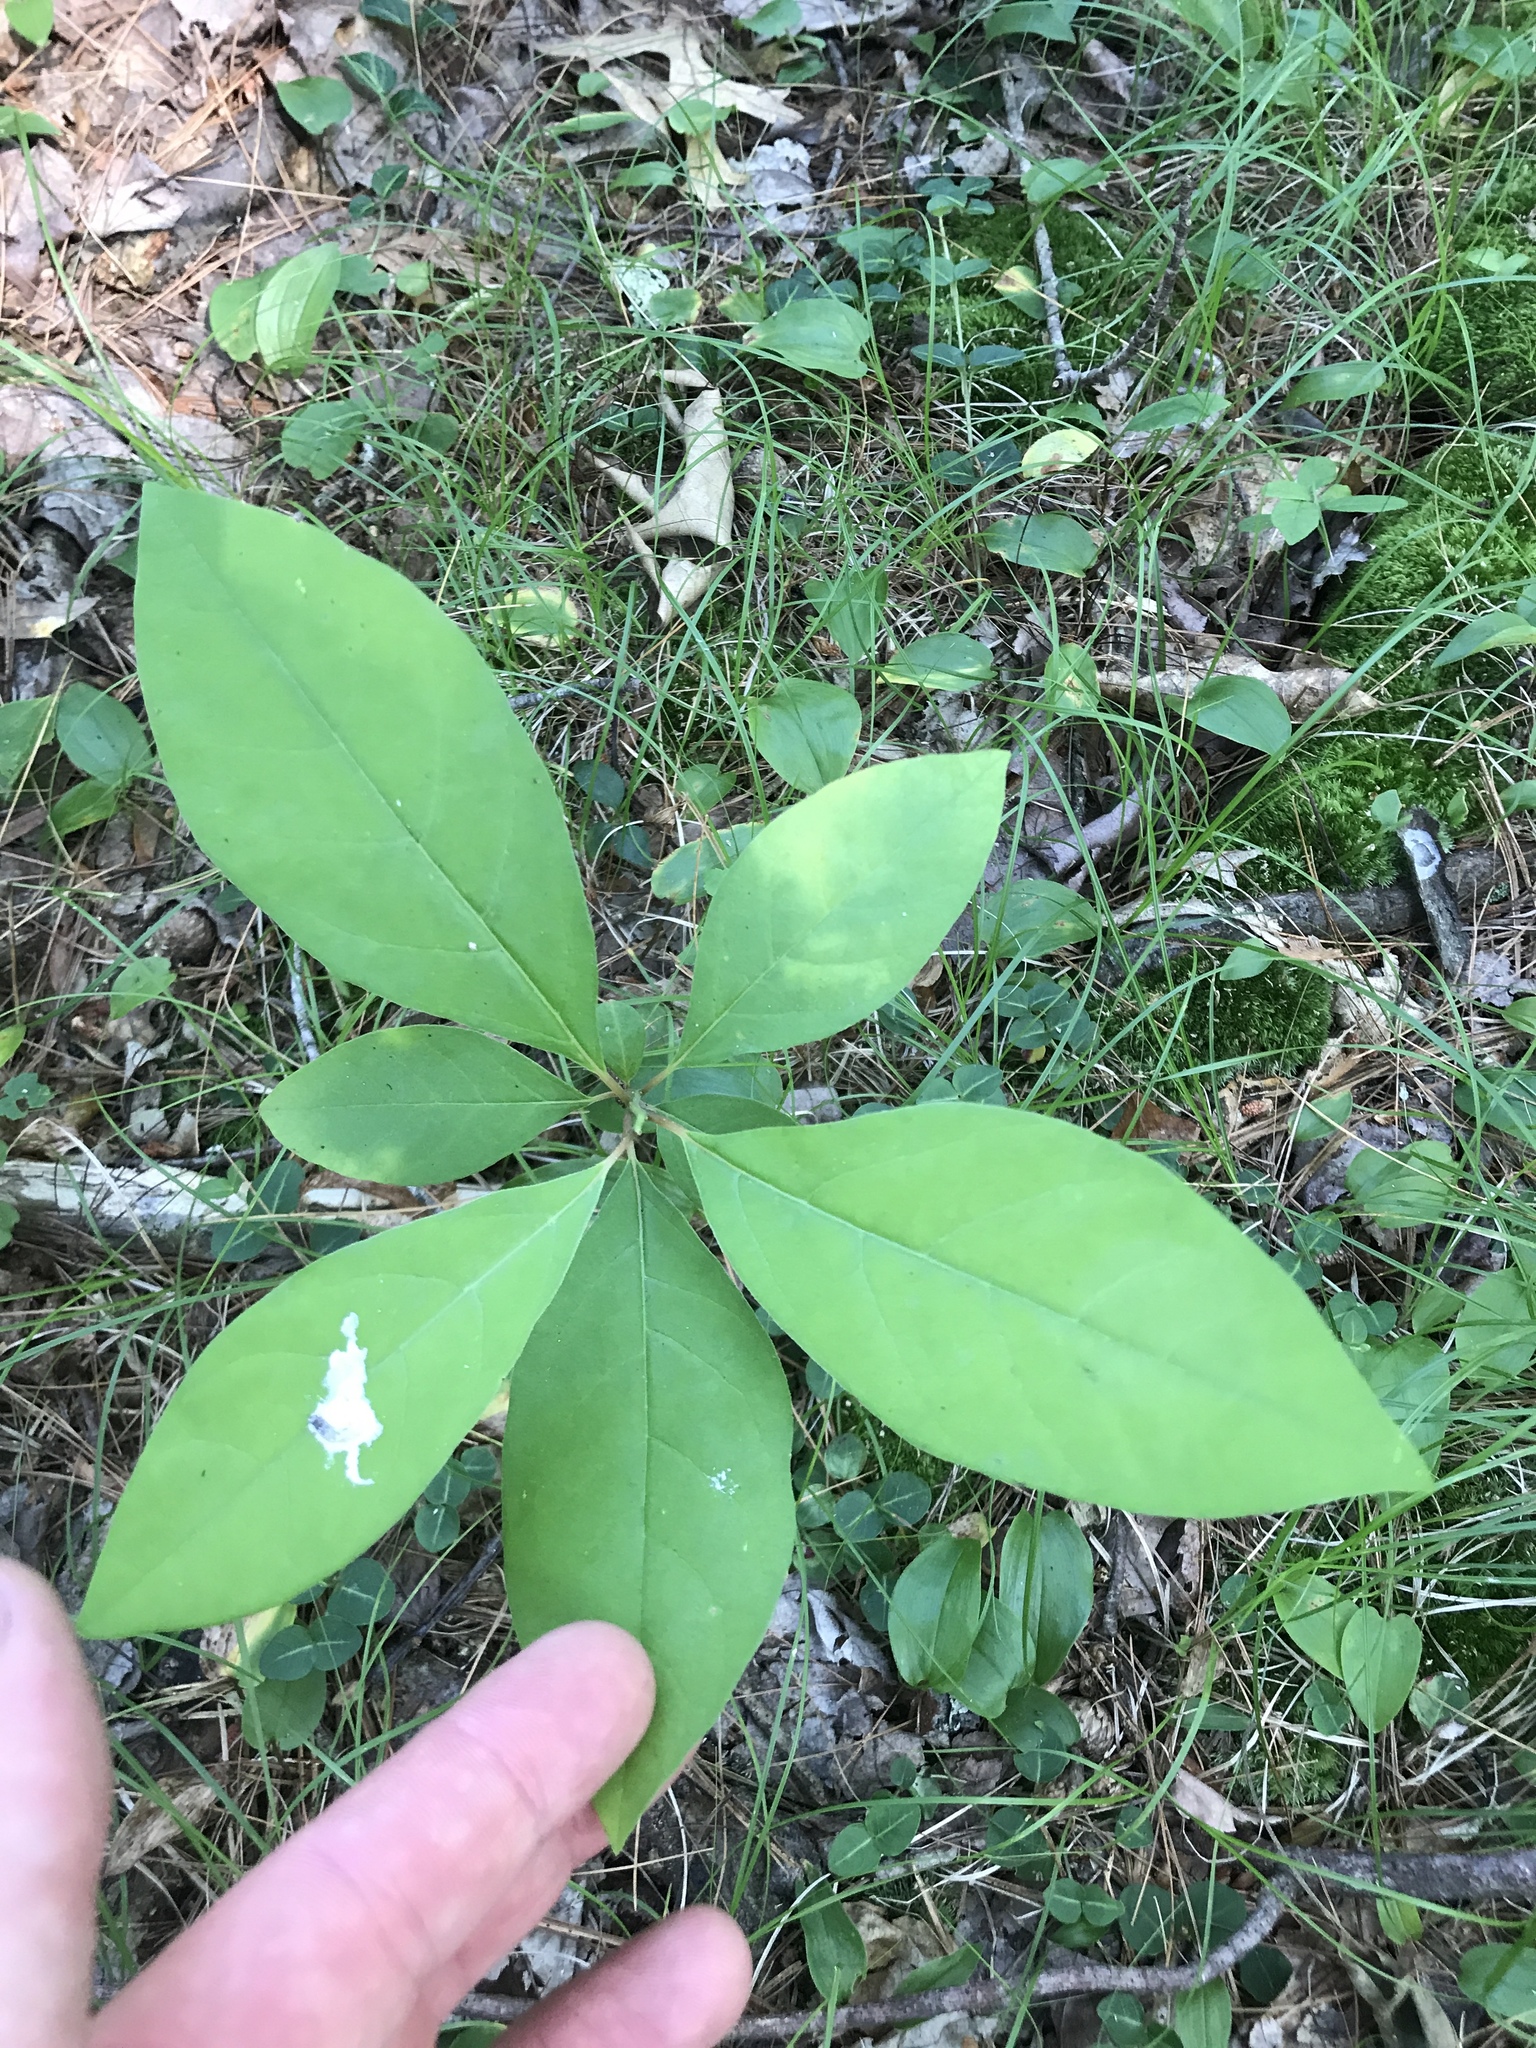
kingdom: Plantae
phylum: Tracheophyta
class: Magnoliopsida
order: Laurales
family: Lauraceae
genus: Lindera
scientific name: Lindera benzoin
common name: Spicebush
